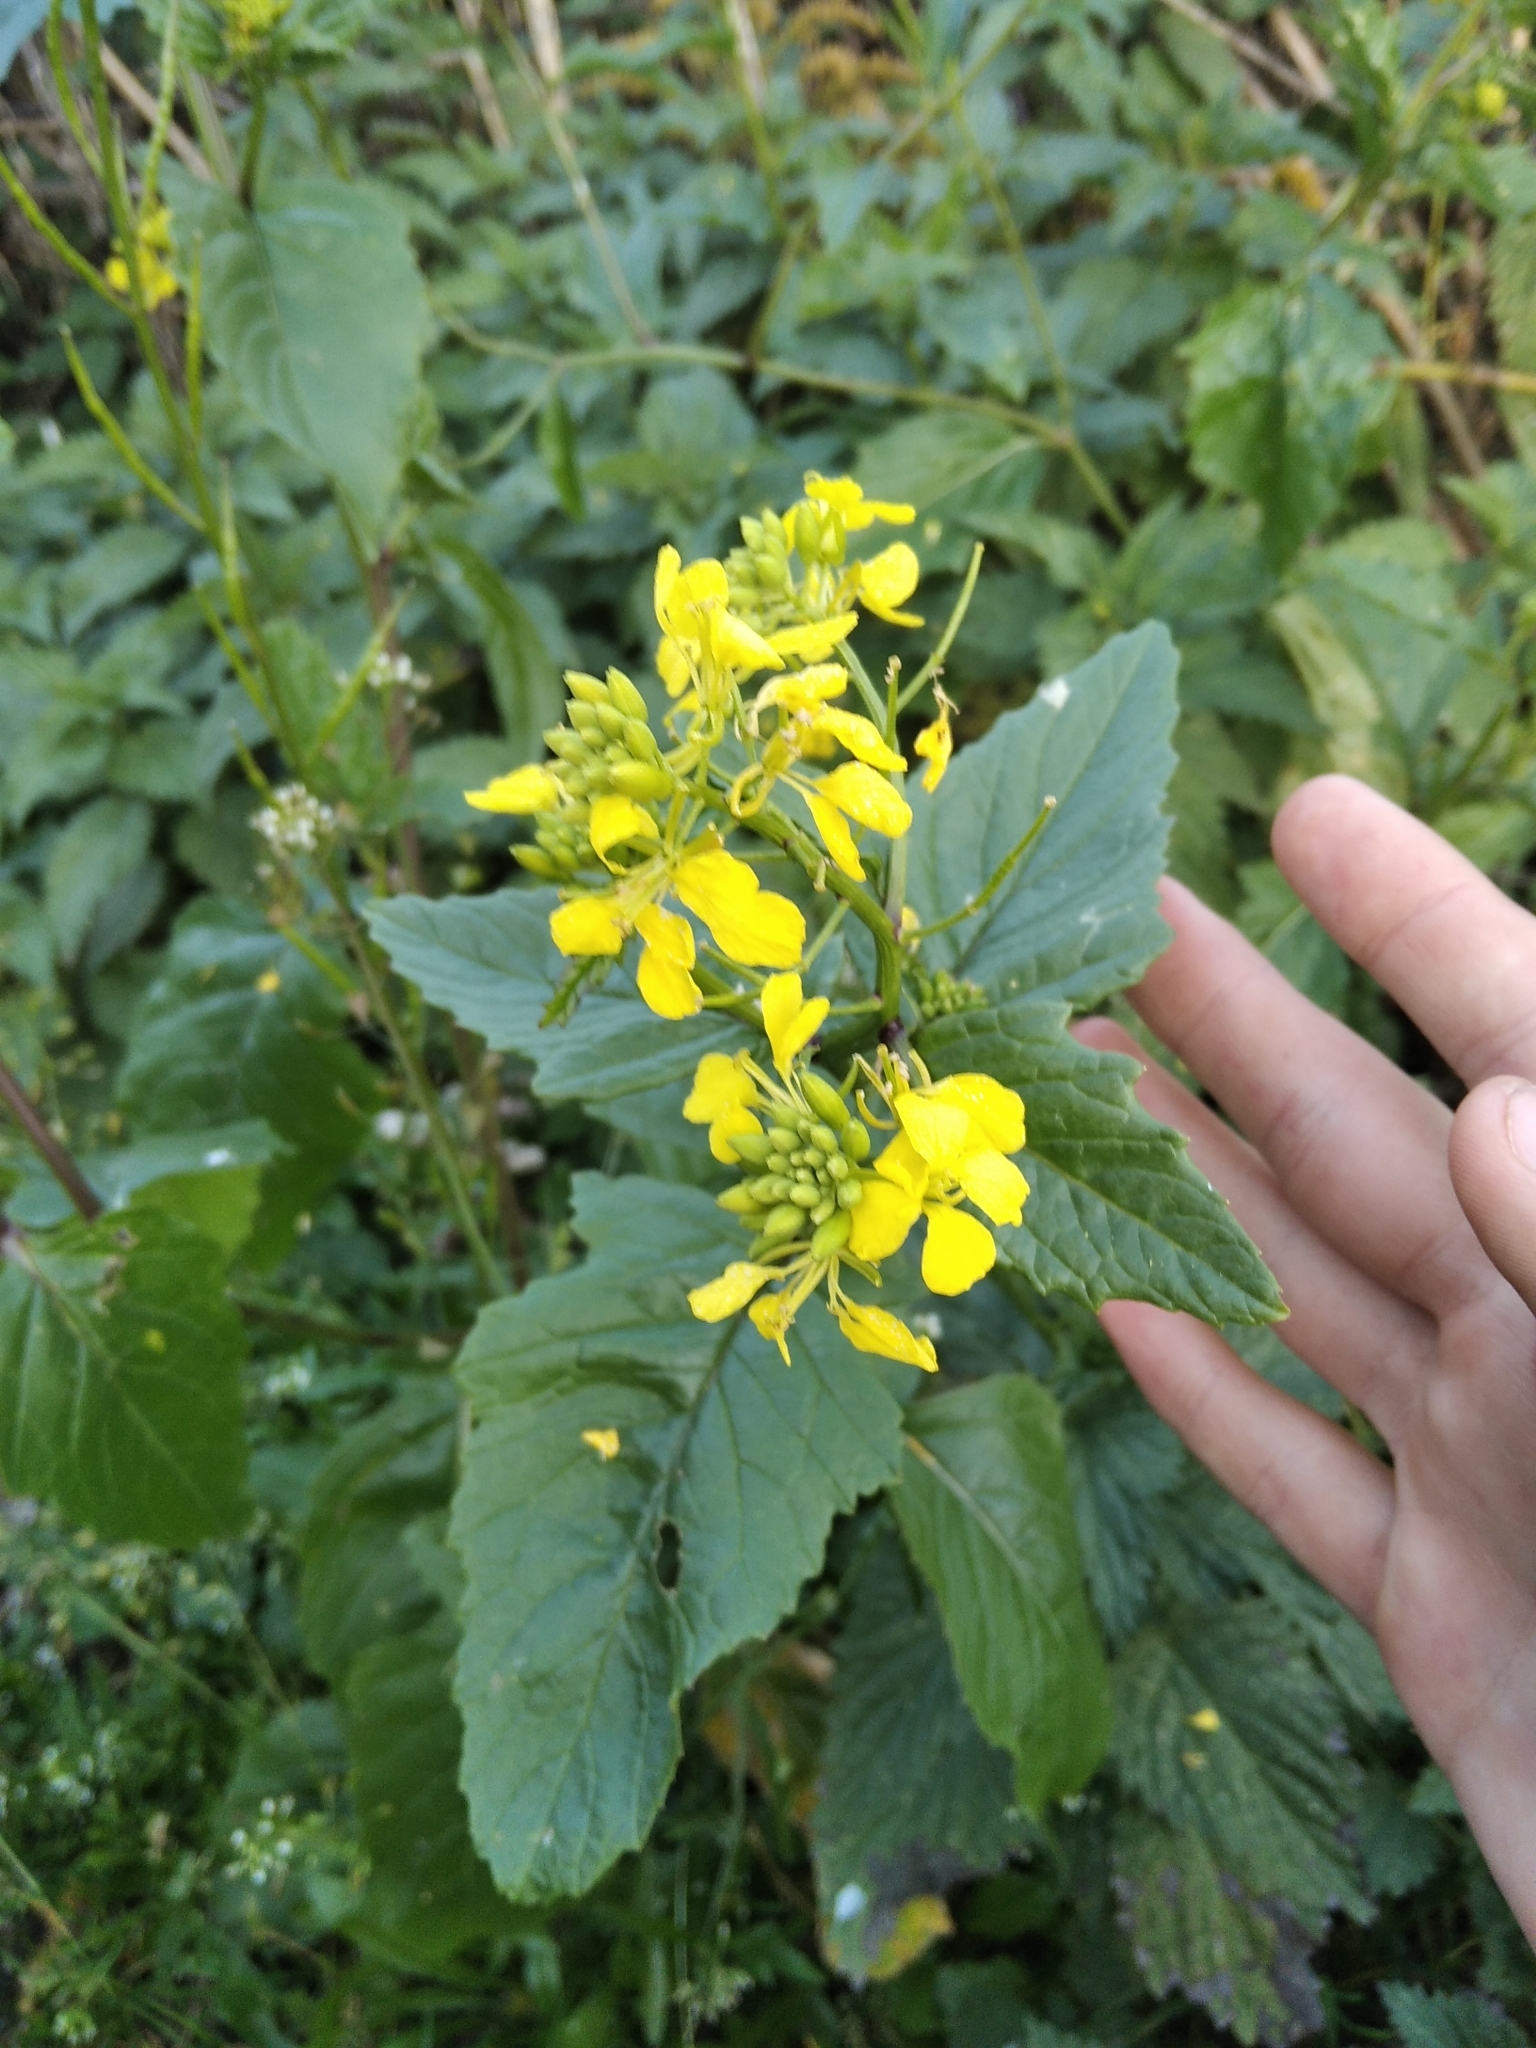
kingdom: Plantae
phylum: Tracheophyta
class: Magnoliopsida
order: Brassicales
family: Brassicaceae
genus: Sinapis
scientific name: Sinapis arvensis
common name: Charlock
